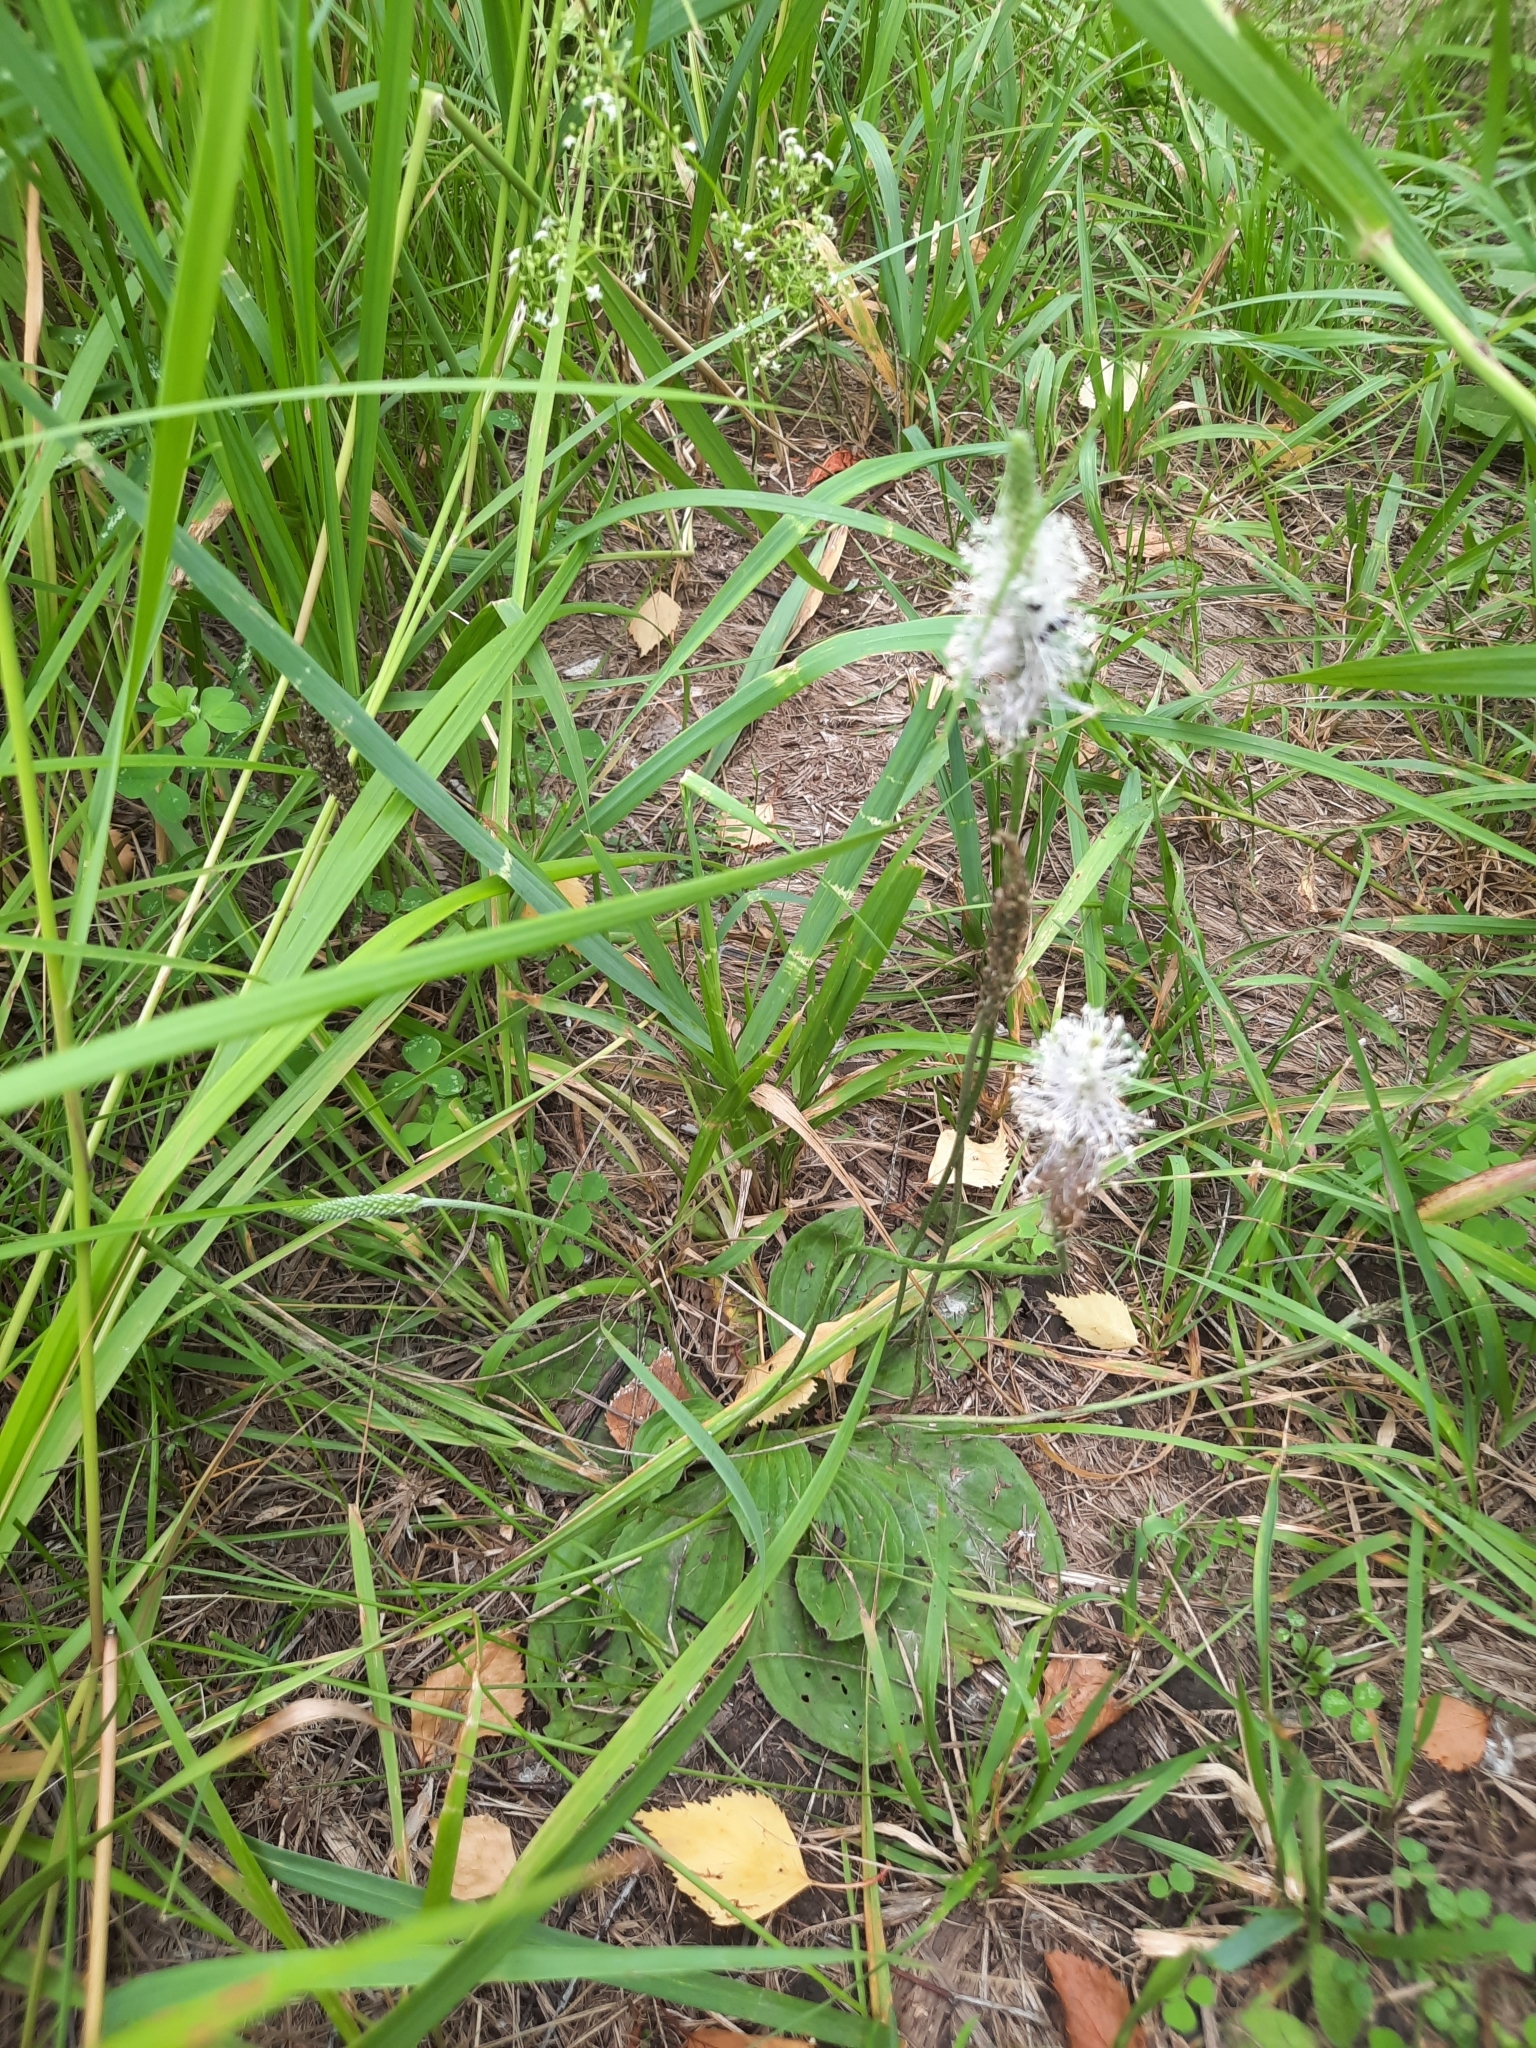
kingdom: Plantae
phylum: Tracheophyta
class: Magnoliopsida
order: Lamiales
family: Plantaginaceae
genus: Plantago
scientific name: Plantago media
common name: Hoary plantain
